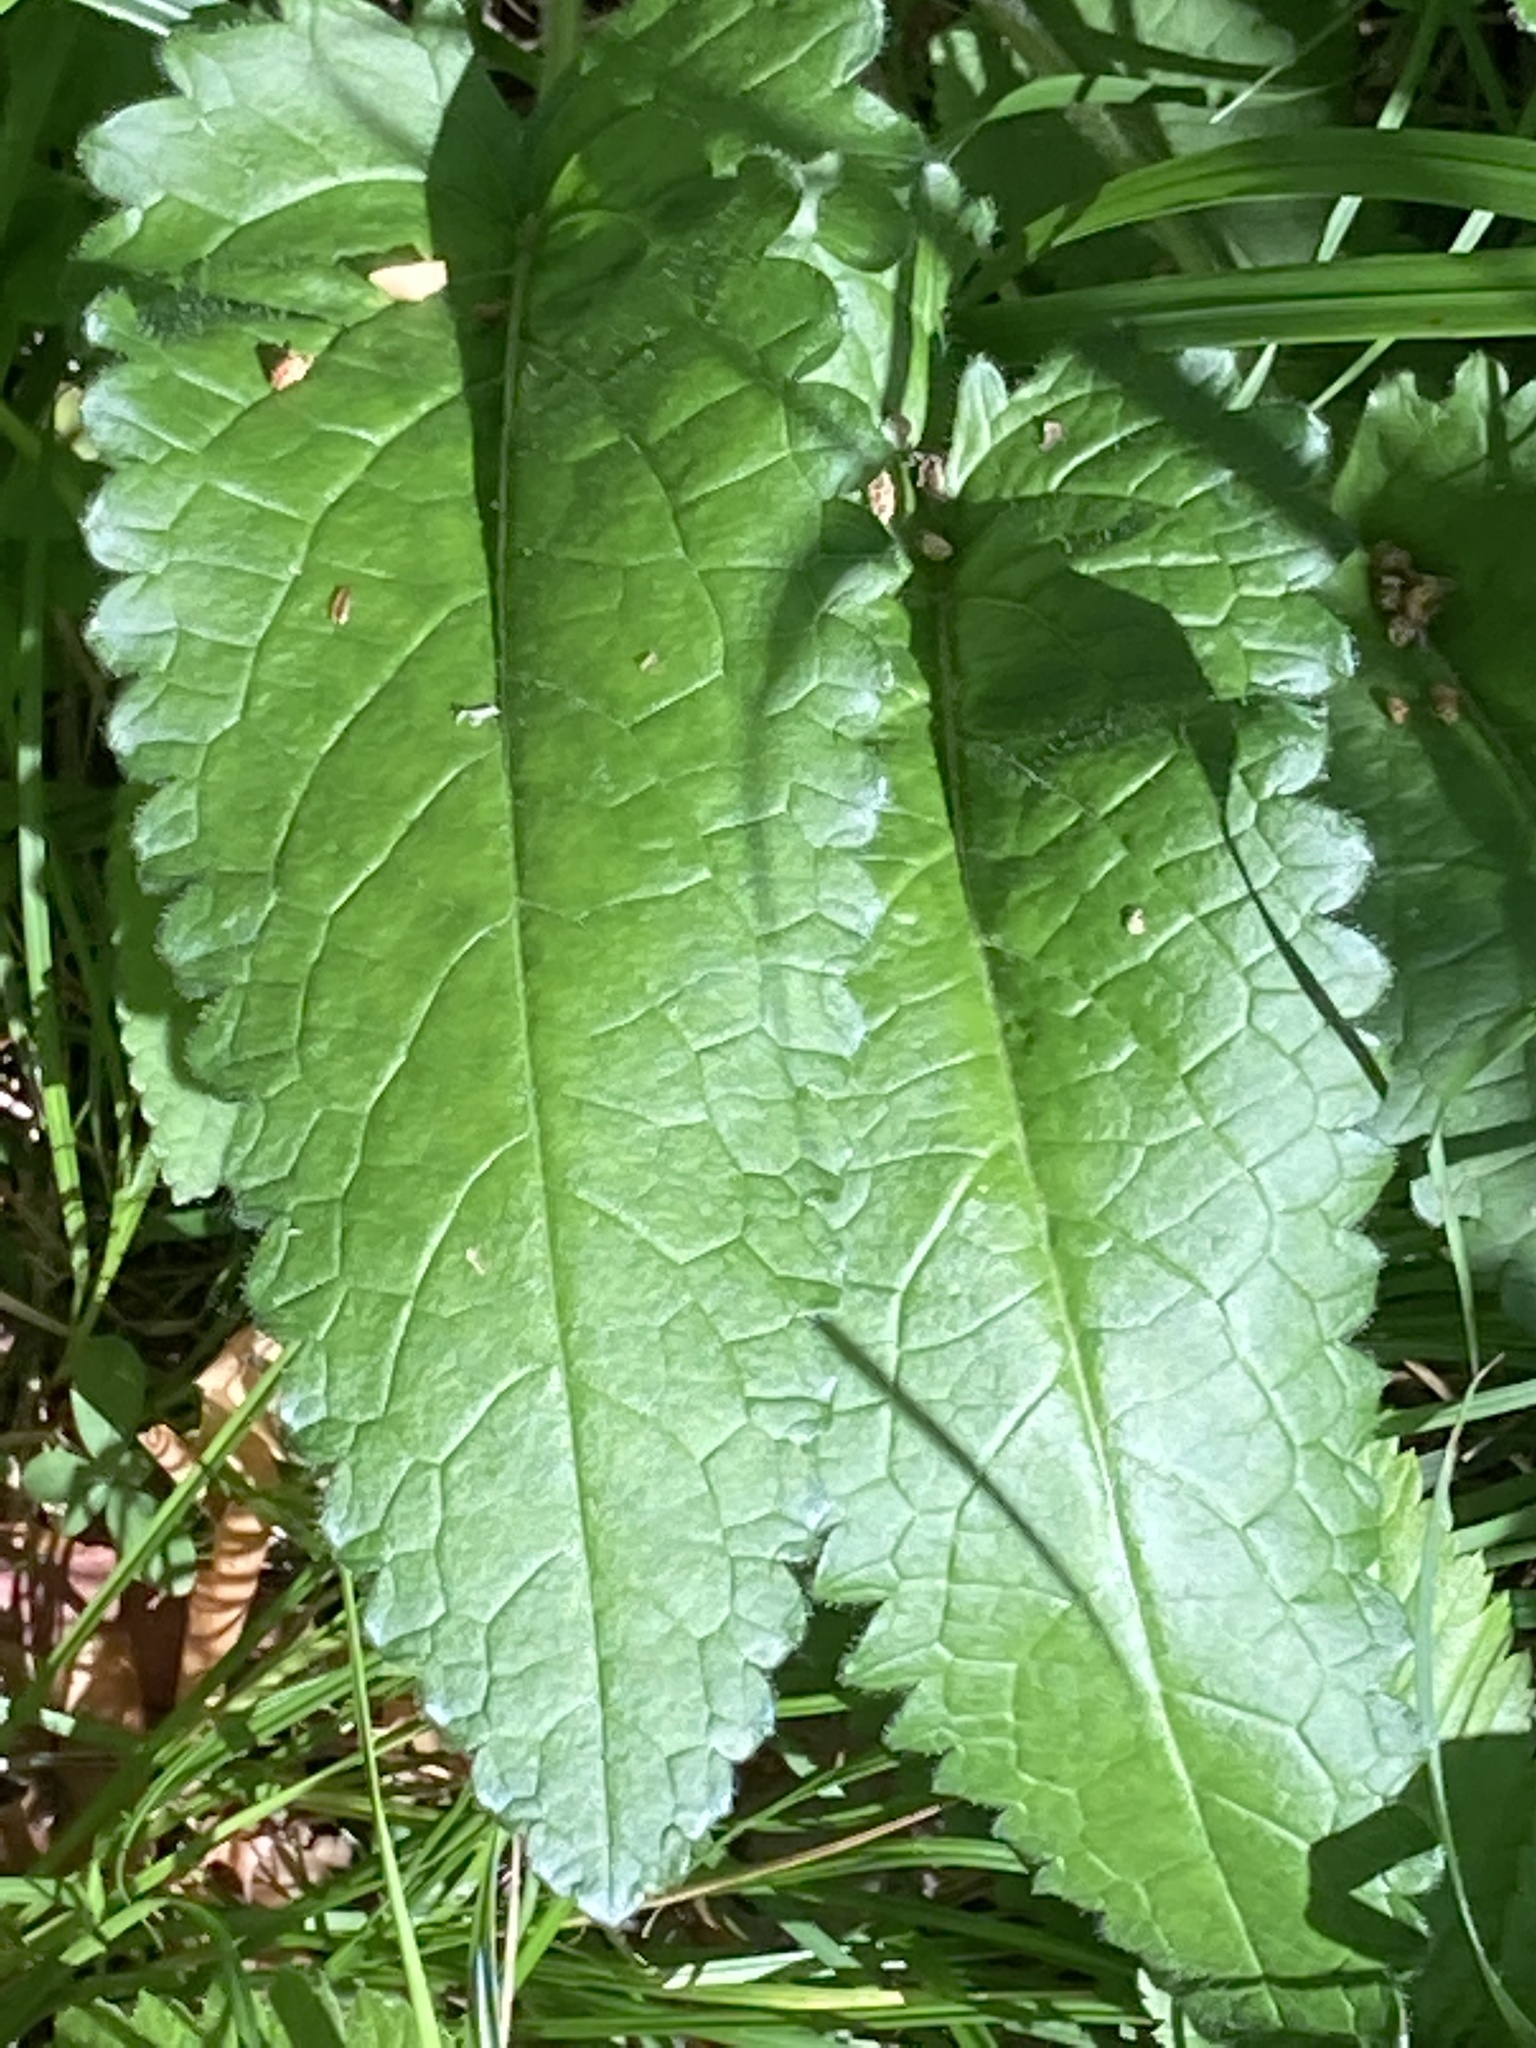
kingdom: Plantae
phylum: Tracheophyta
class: Magnoliopsida
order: Lamiales
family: Lamiaceae
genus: Betonica
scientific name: Betonica officinalis
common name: Bishop's-wort
